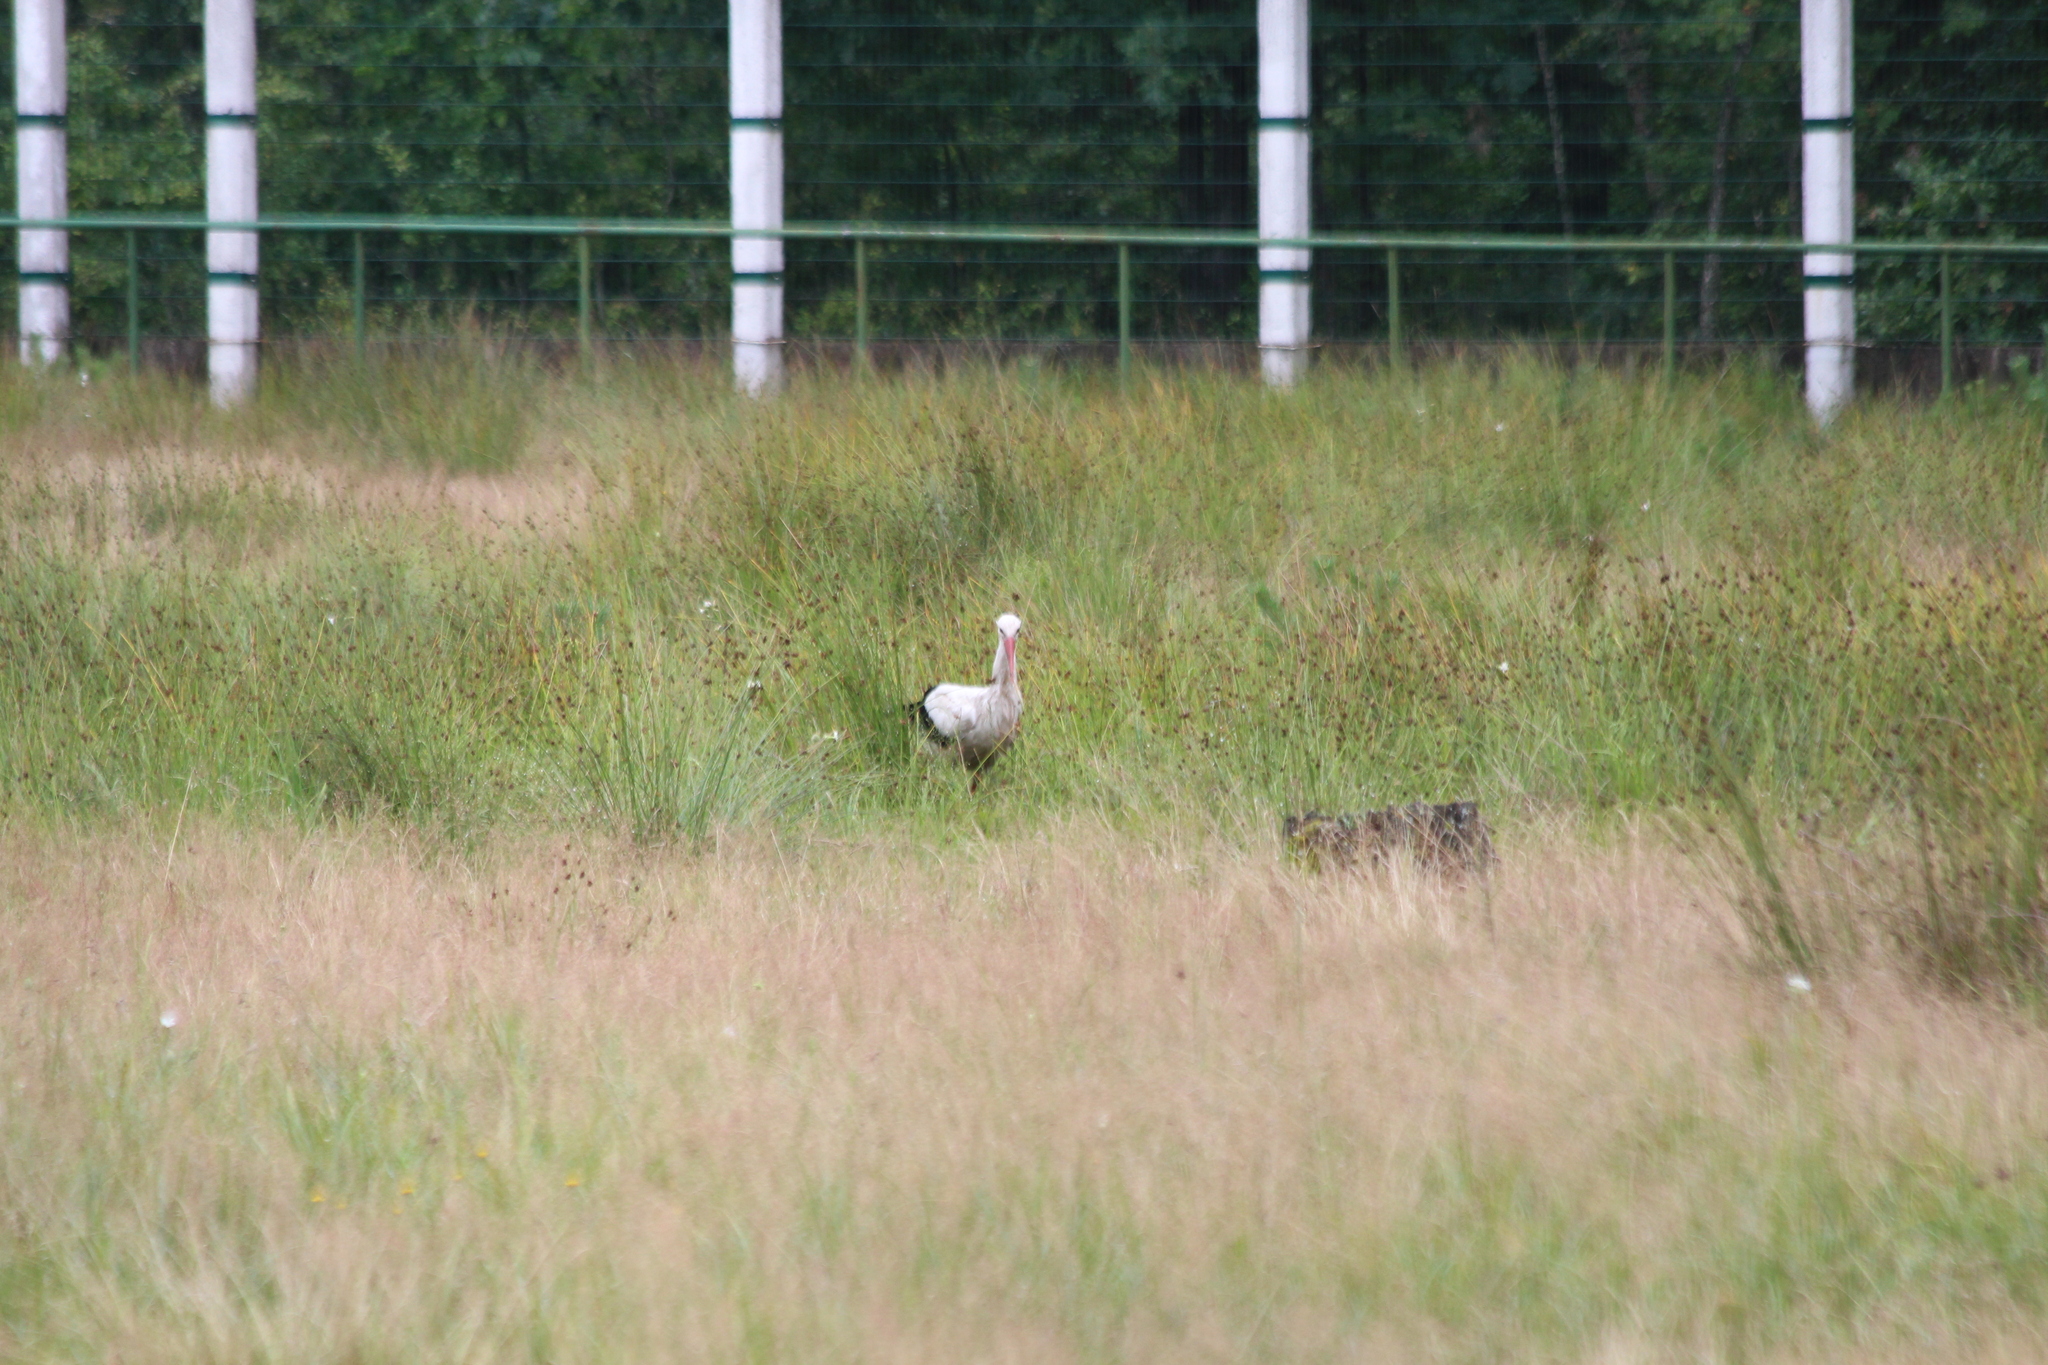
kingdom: Animalia
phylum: Chordata
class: Aves
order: Ciconiiformes
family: Ciconiidae
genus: Ciconia
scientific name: Ciconia ciconia
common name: White stork
